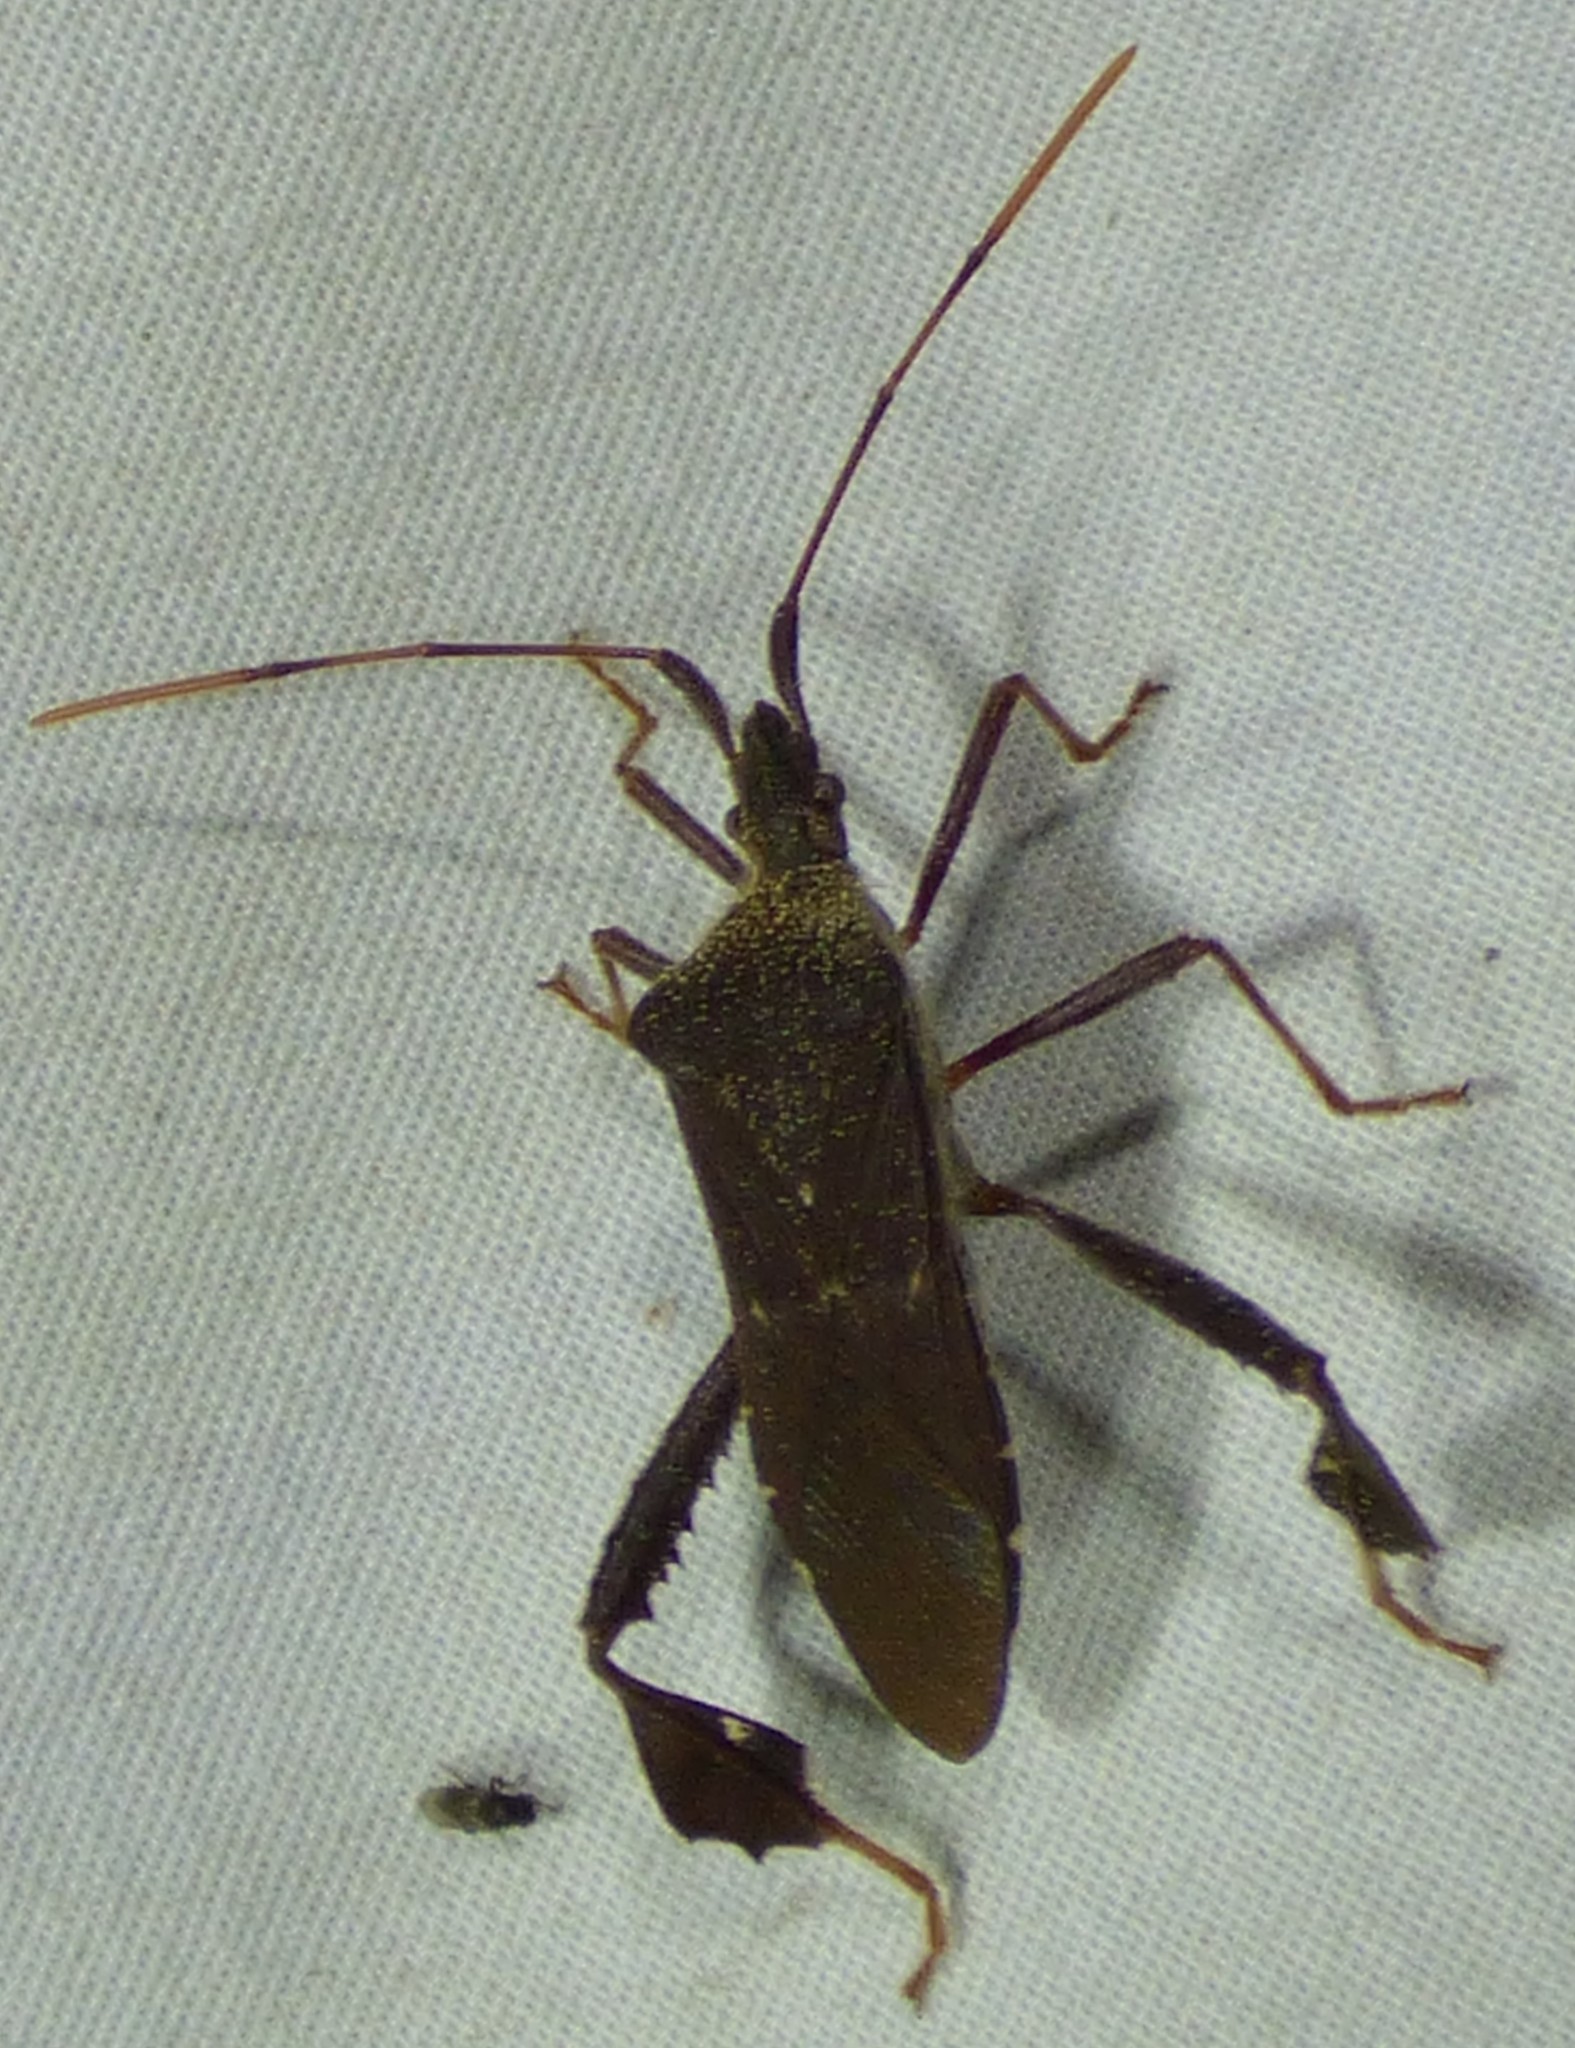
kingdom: Animalia
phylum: Arthropoda
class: Insecta
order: Hemiptera
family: Coreidae
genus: Leptoglossus
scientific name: Leptoglossus oppositus
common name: Northern leaf-footed bug
